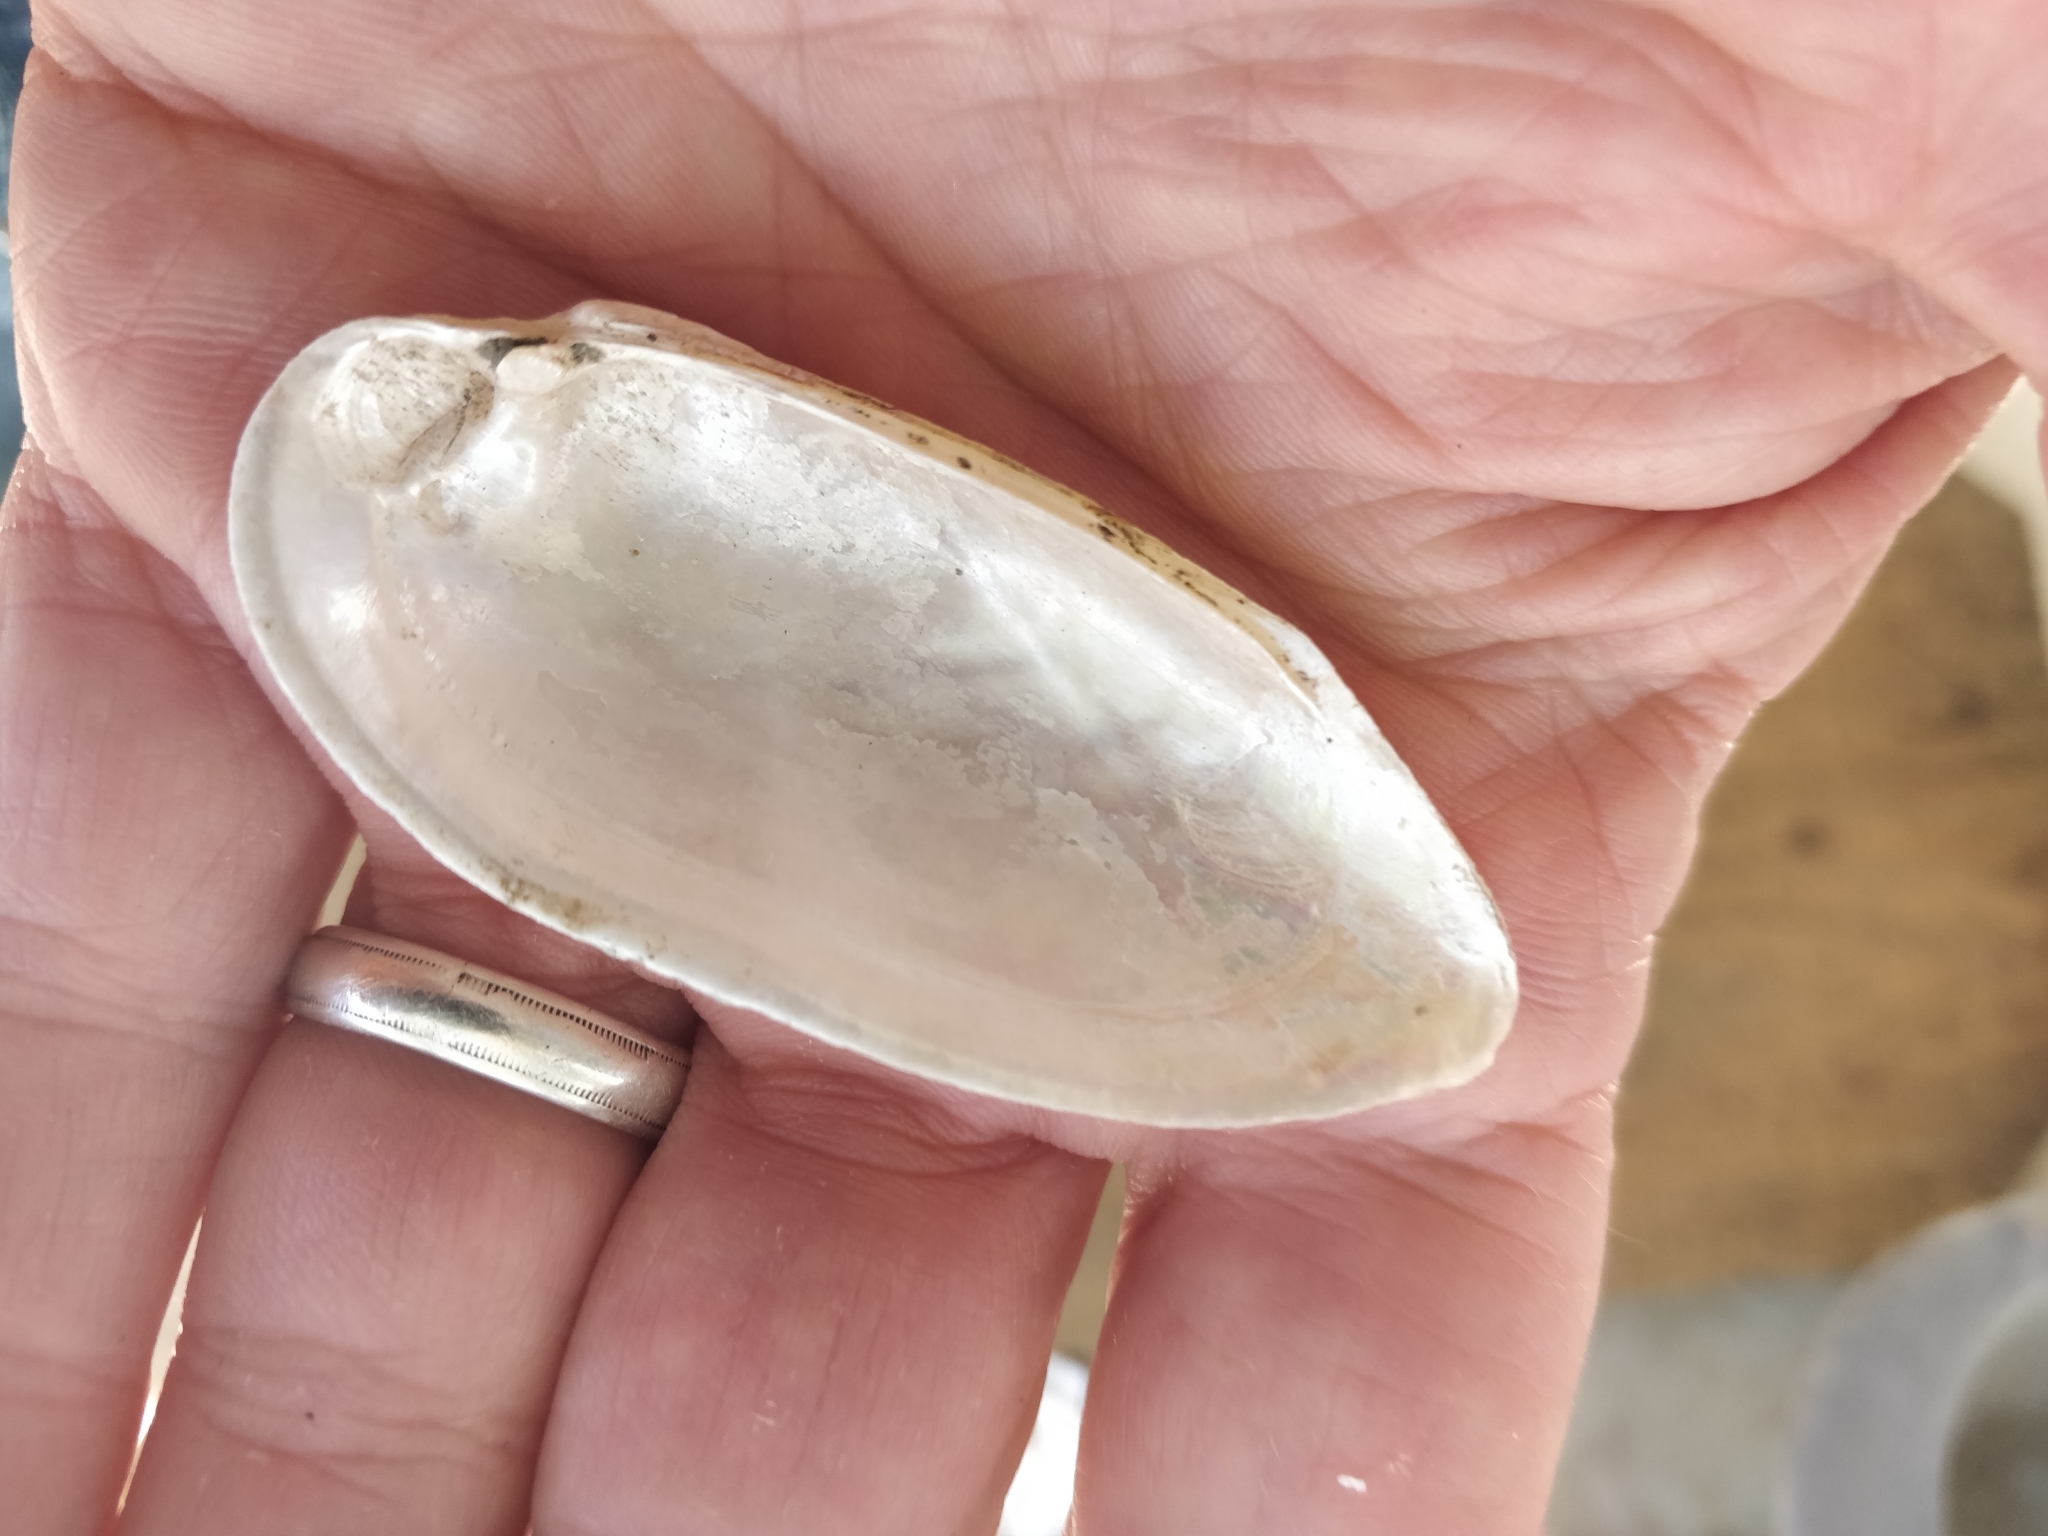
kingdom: Animalia
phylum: Mollusca
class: Bivalvia
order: Unionida
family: Unionidae
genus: Lampsilis
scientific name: Lampsilis teres
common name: Yellow sandshell
